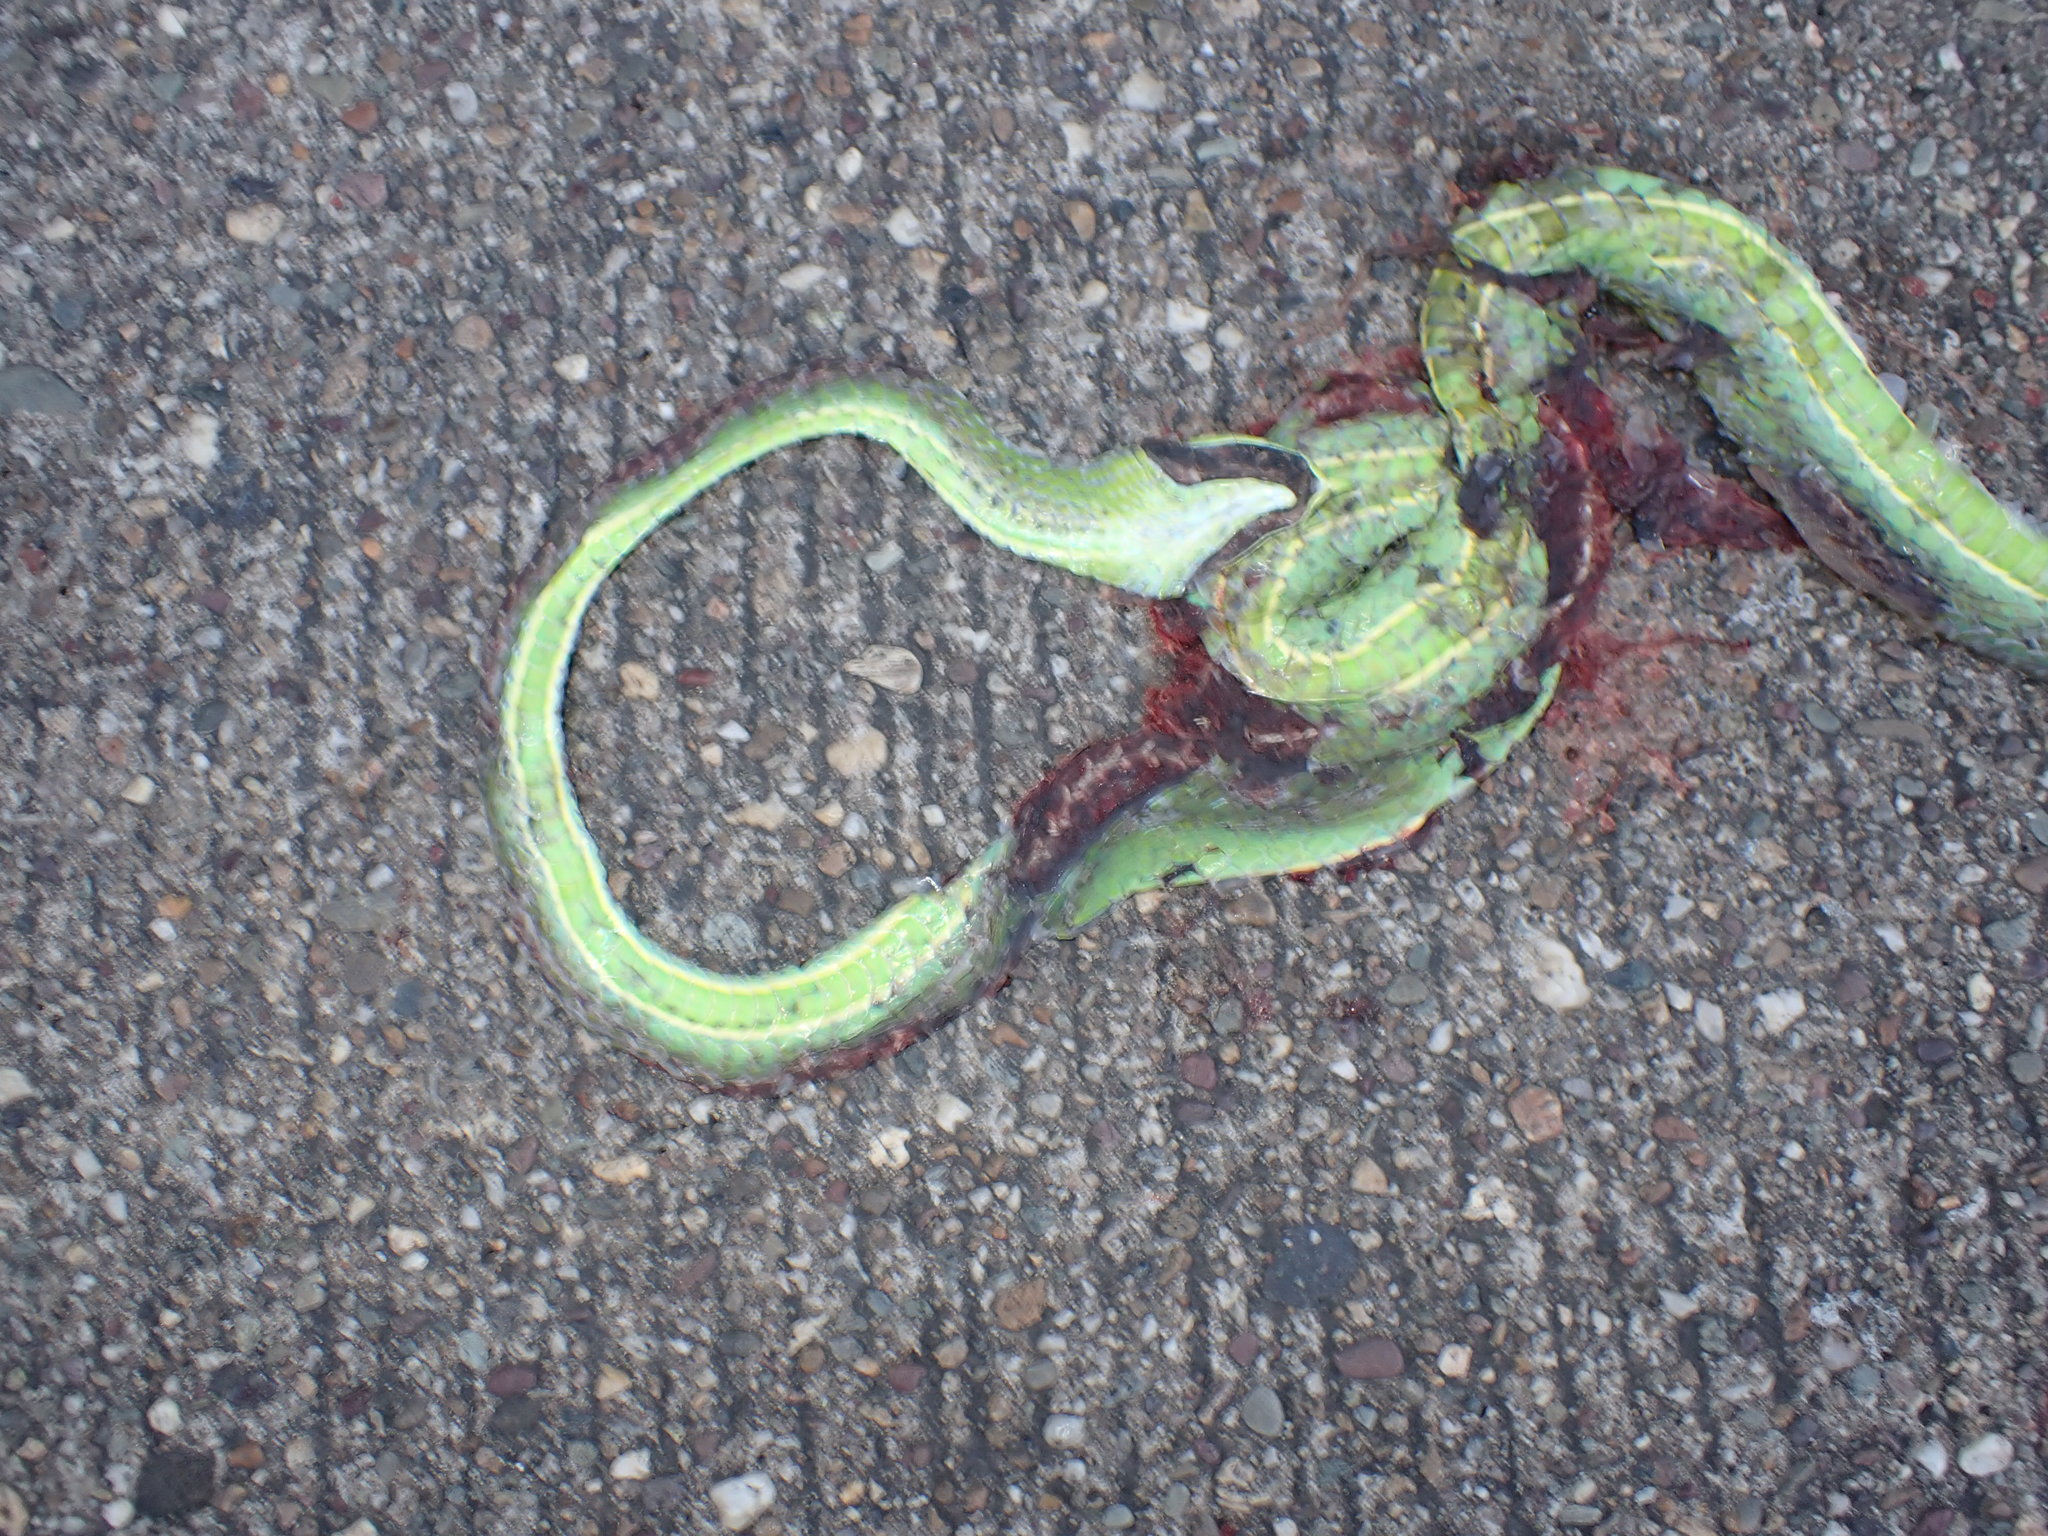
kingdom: Animalia
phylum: Chordata
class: Squamata
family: Colubridae
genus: Ahaetulla
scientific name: Ahaetulla
